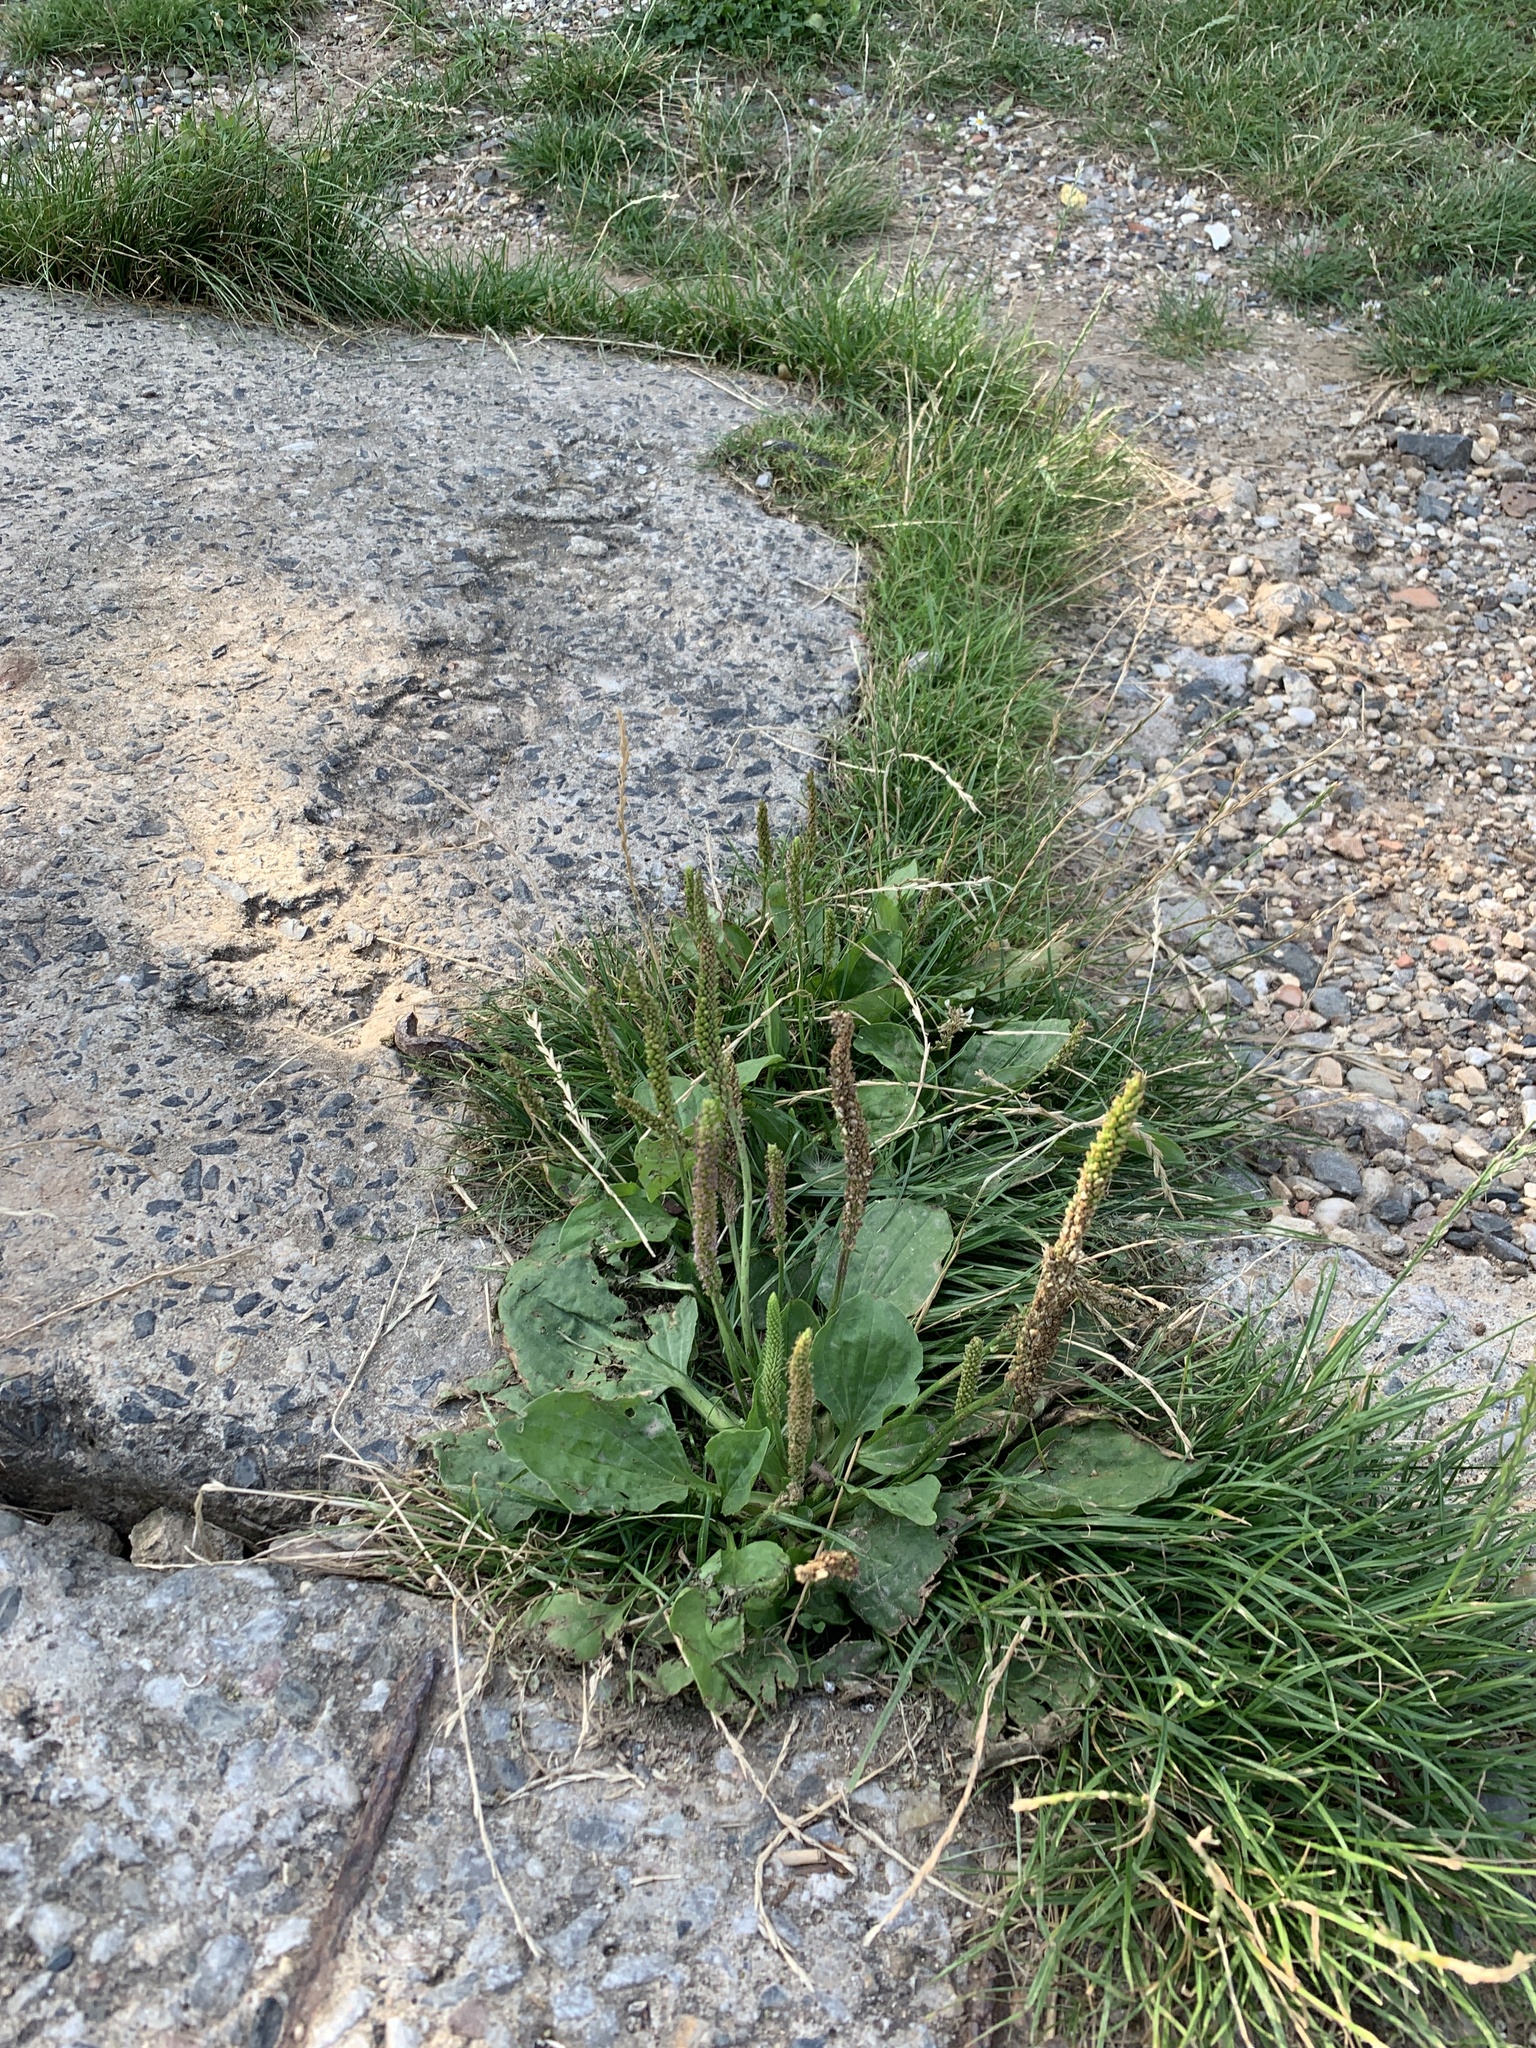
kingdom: Plantae
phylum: Tracheophyta
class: Magnoliopsida
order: Lamiales
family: Plantaginaceae
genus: Plantago
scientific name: Plantago major
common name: Common plantain
